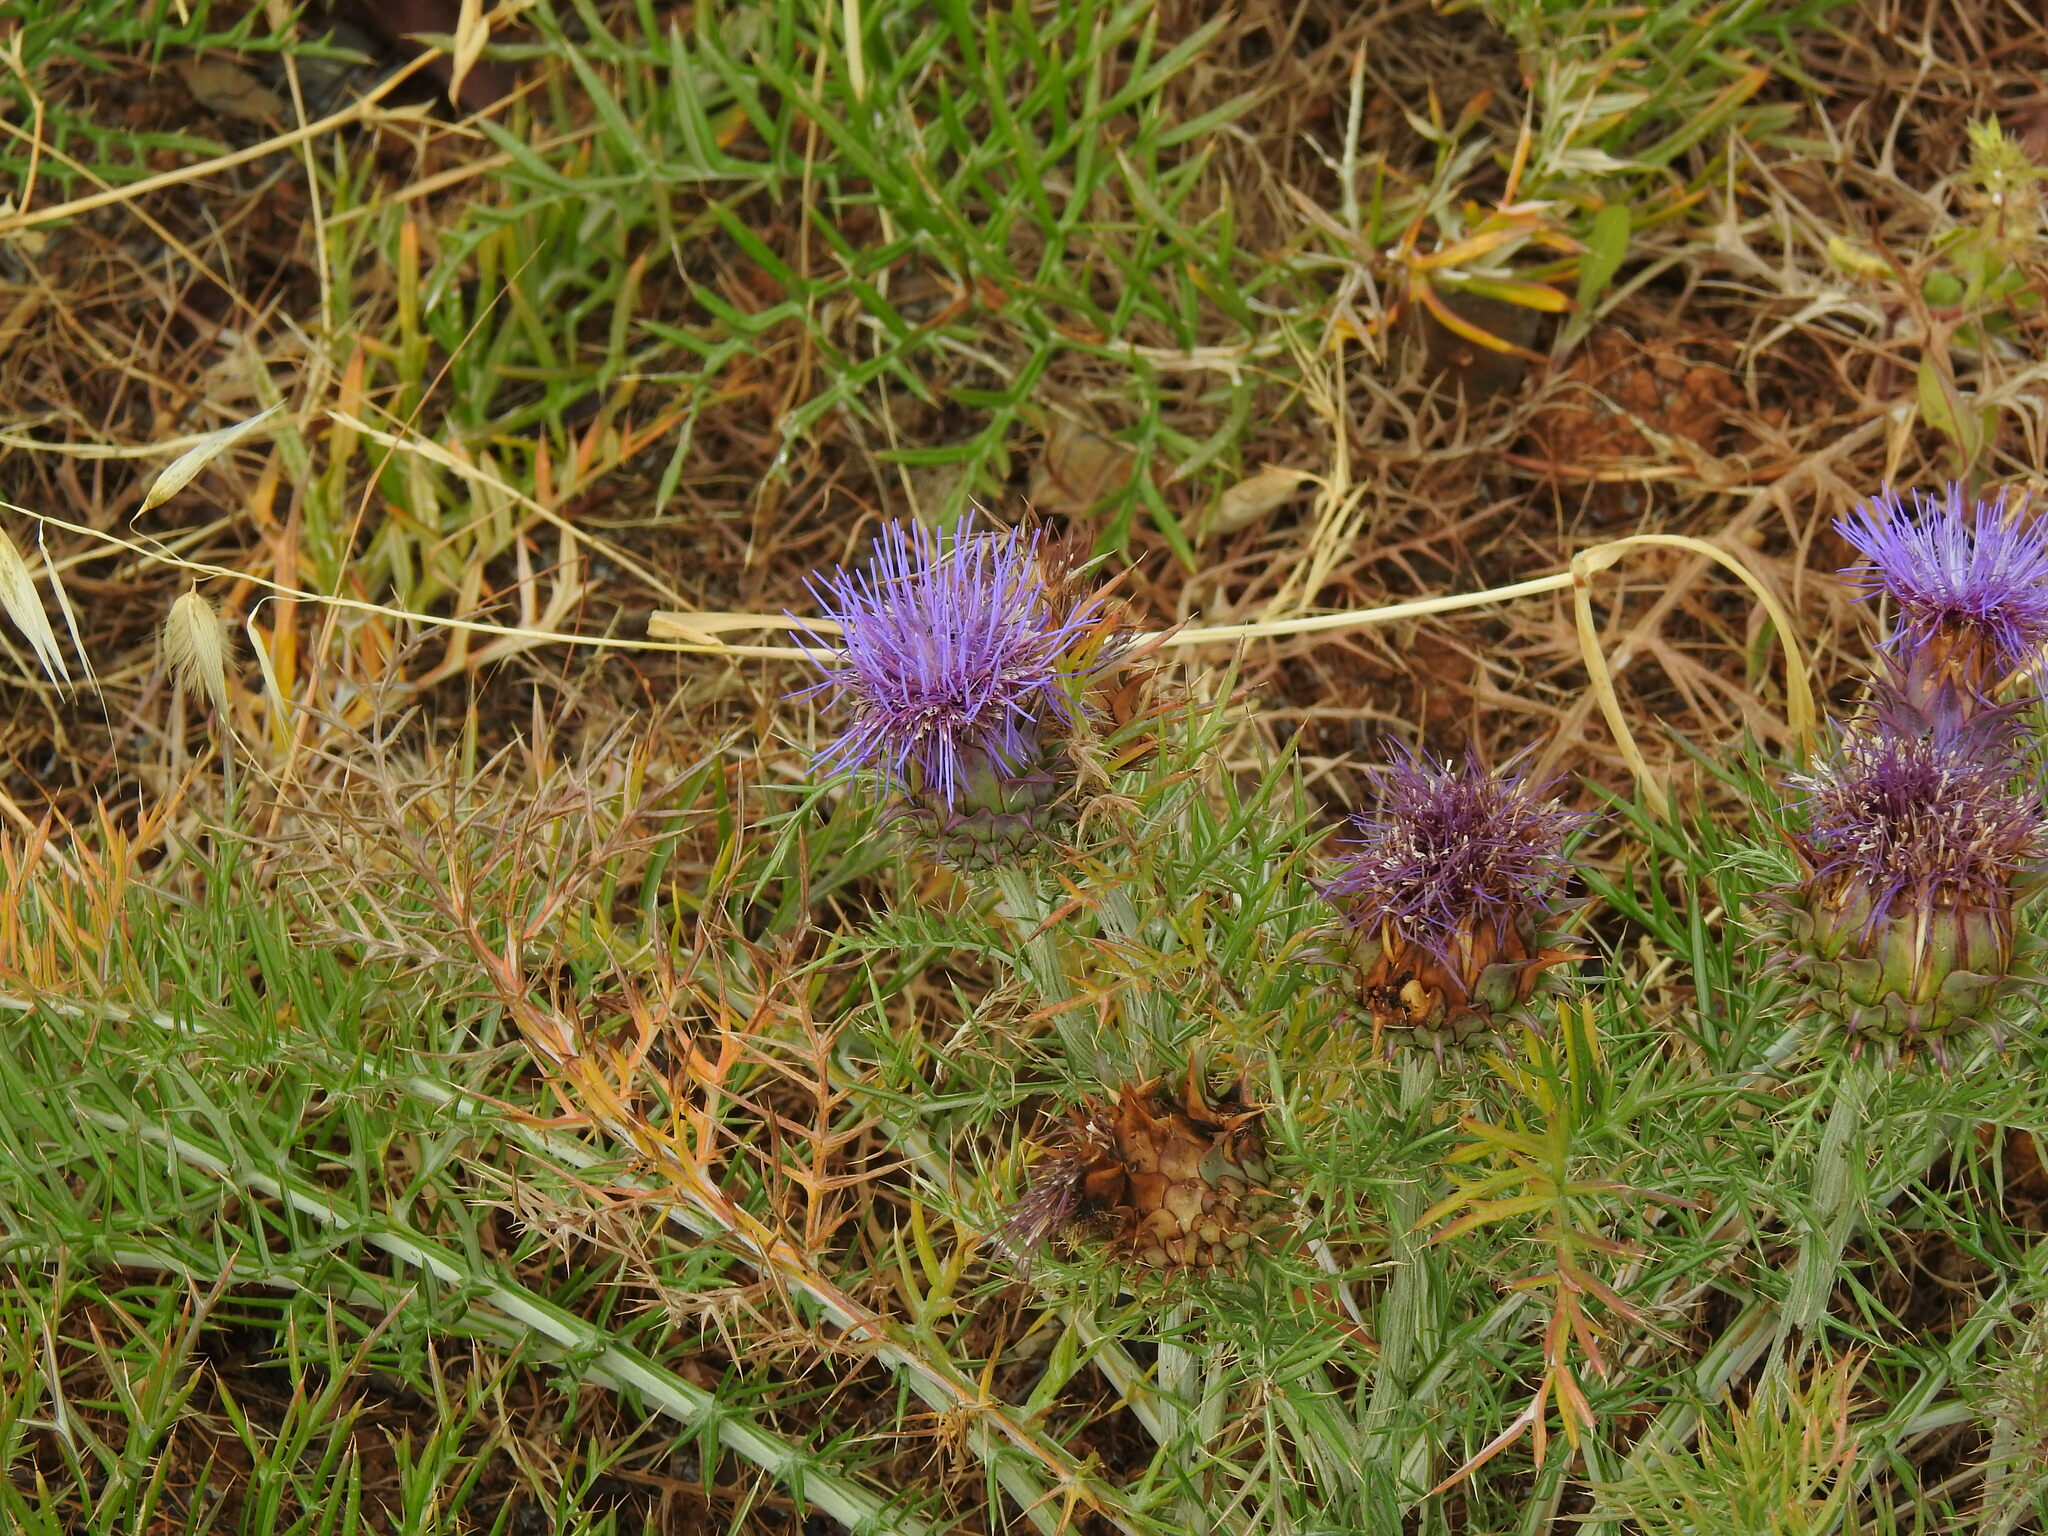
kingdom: Plantae
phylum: Tracheophyta
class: Magnoliopsida
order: Asterales
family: Asteraceae
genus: Cynara
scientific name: Cynara humilis
